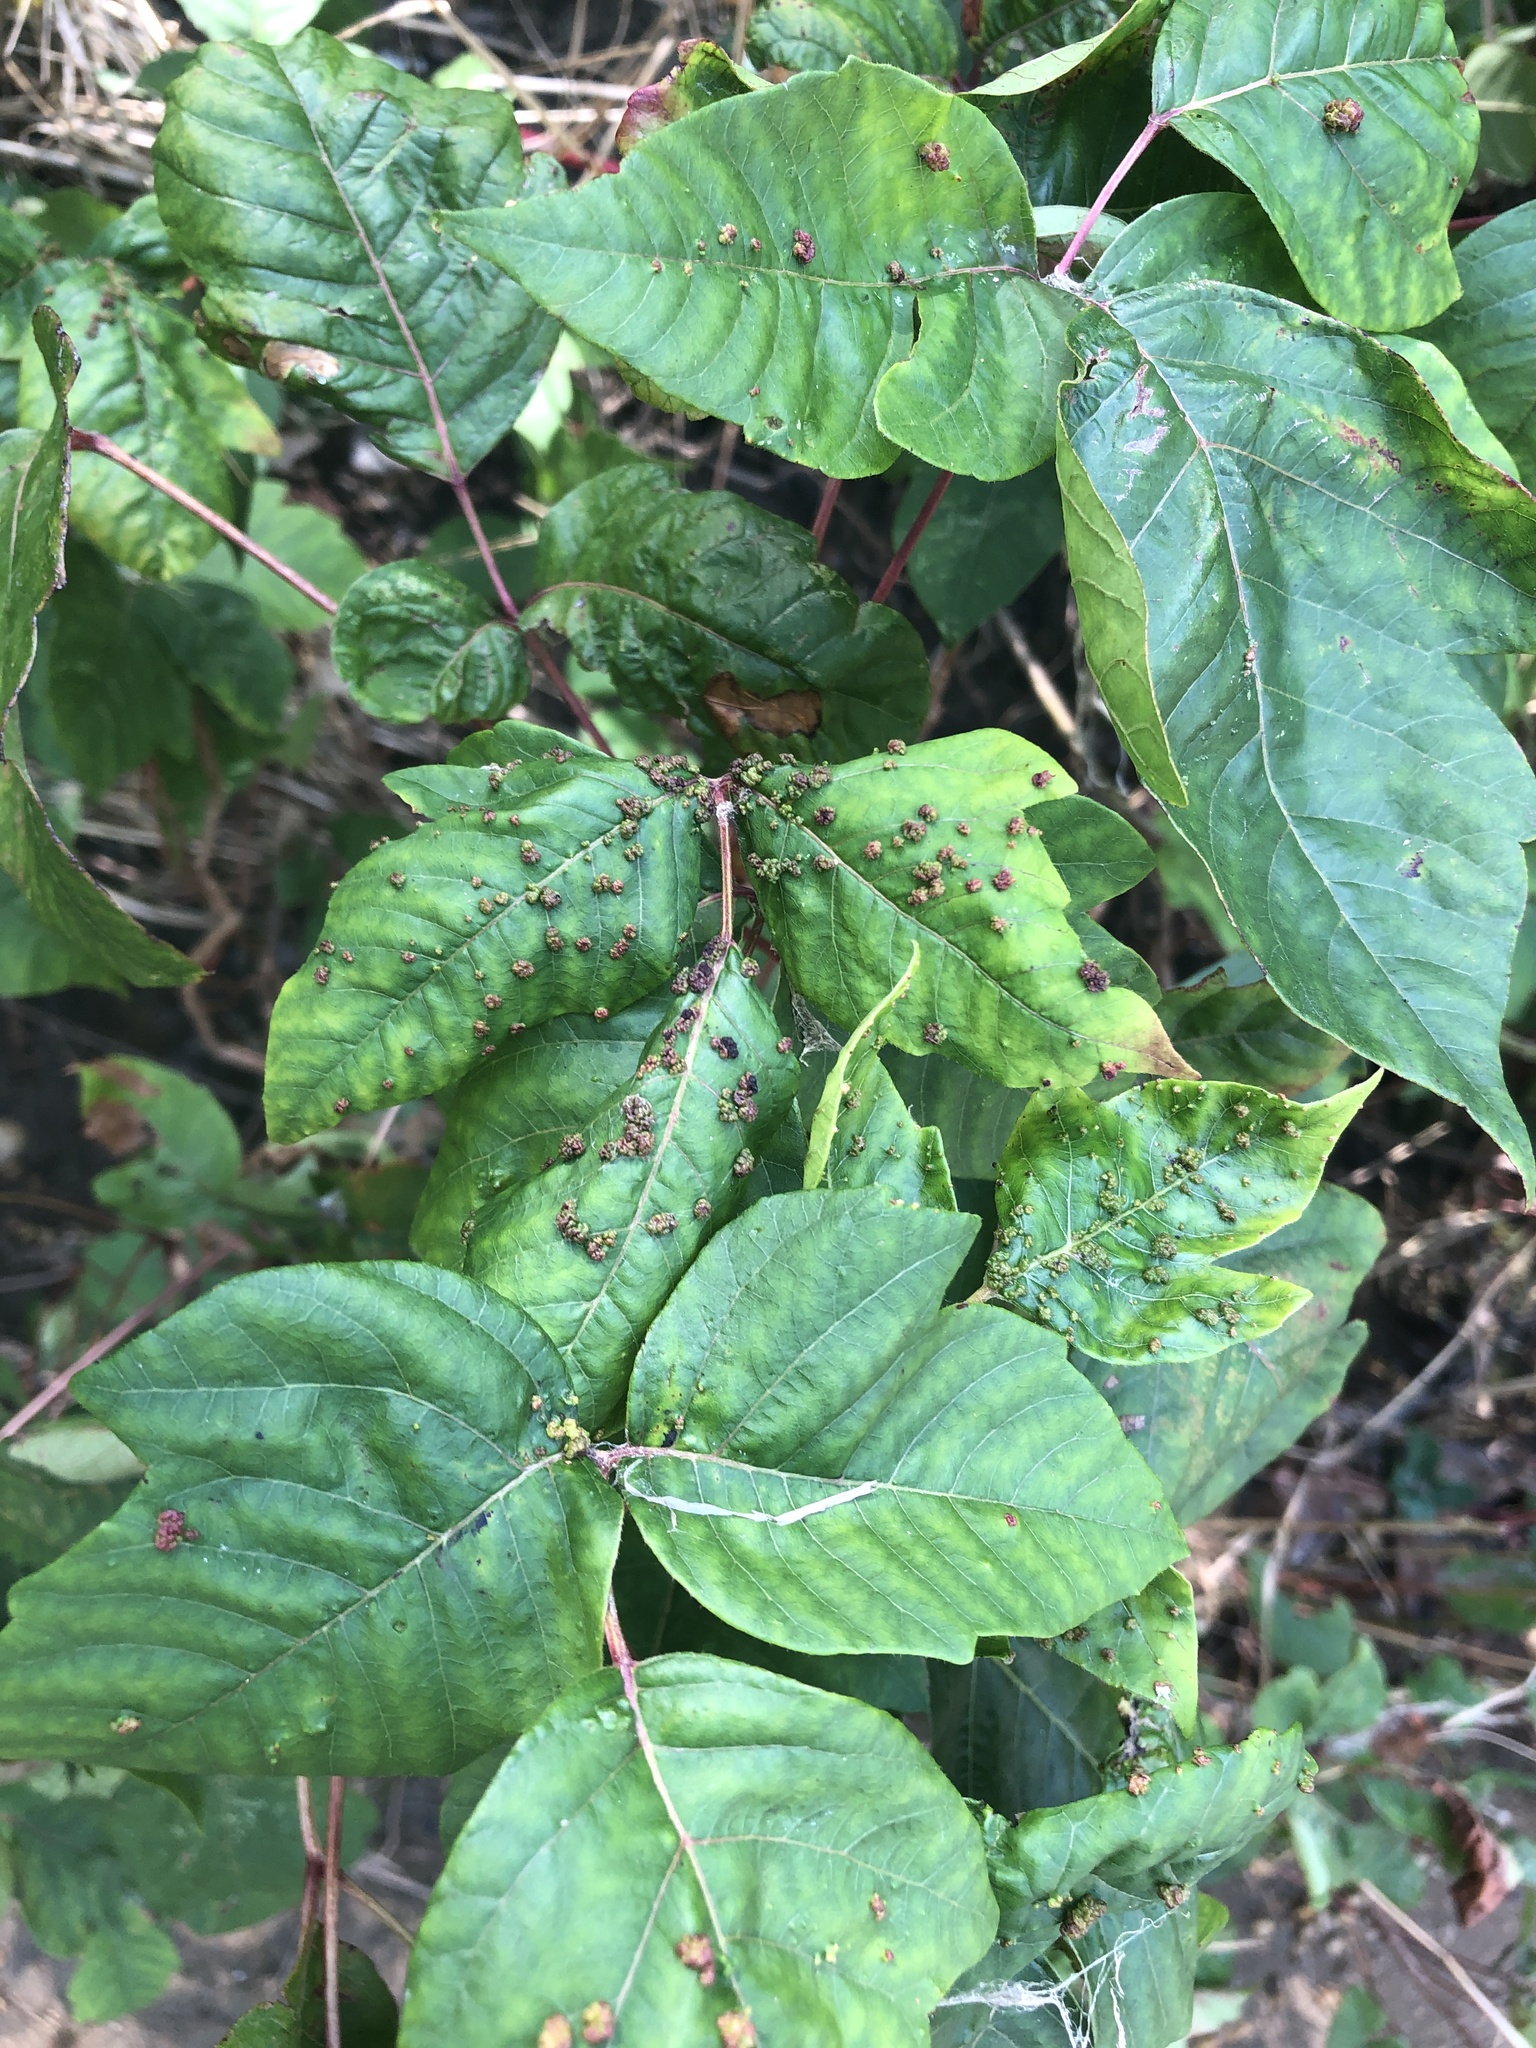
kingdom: Animalia
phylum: Arthropoda
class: Arachnida
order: Trombidiformes
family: Eriophyidae
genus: Aculops
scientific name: Aculops
